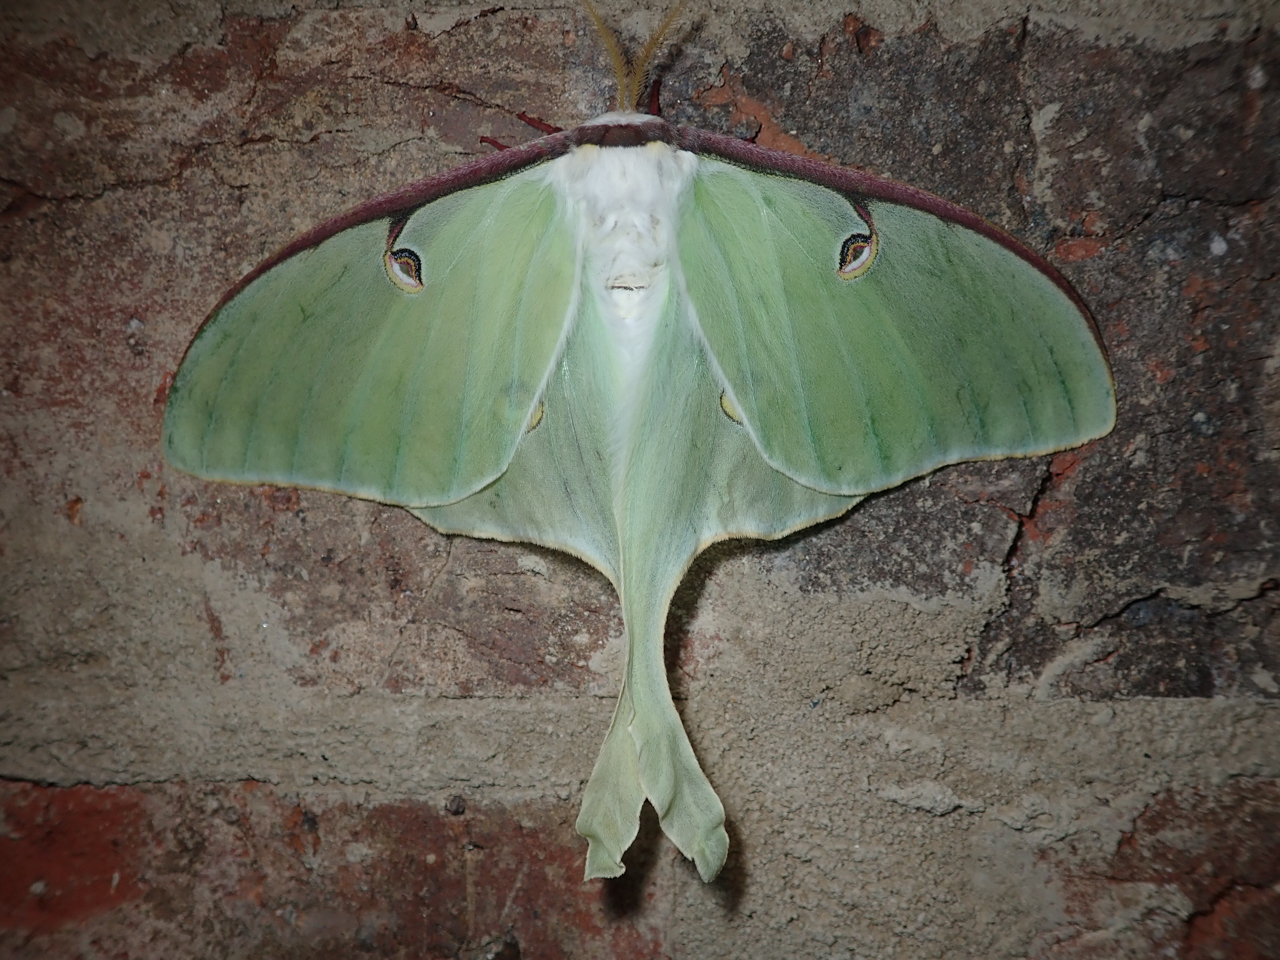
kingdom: Animalia
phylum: Arthropoda
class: Insecta
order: Lepidoptera
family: Saturniidae
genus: Actias
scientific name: Actias luna
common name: Luna moth
